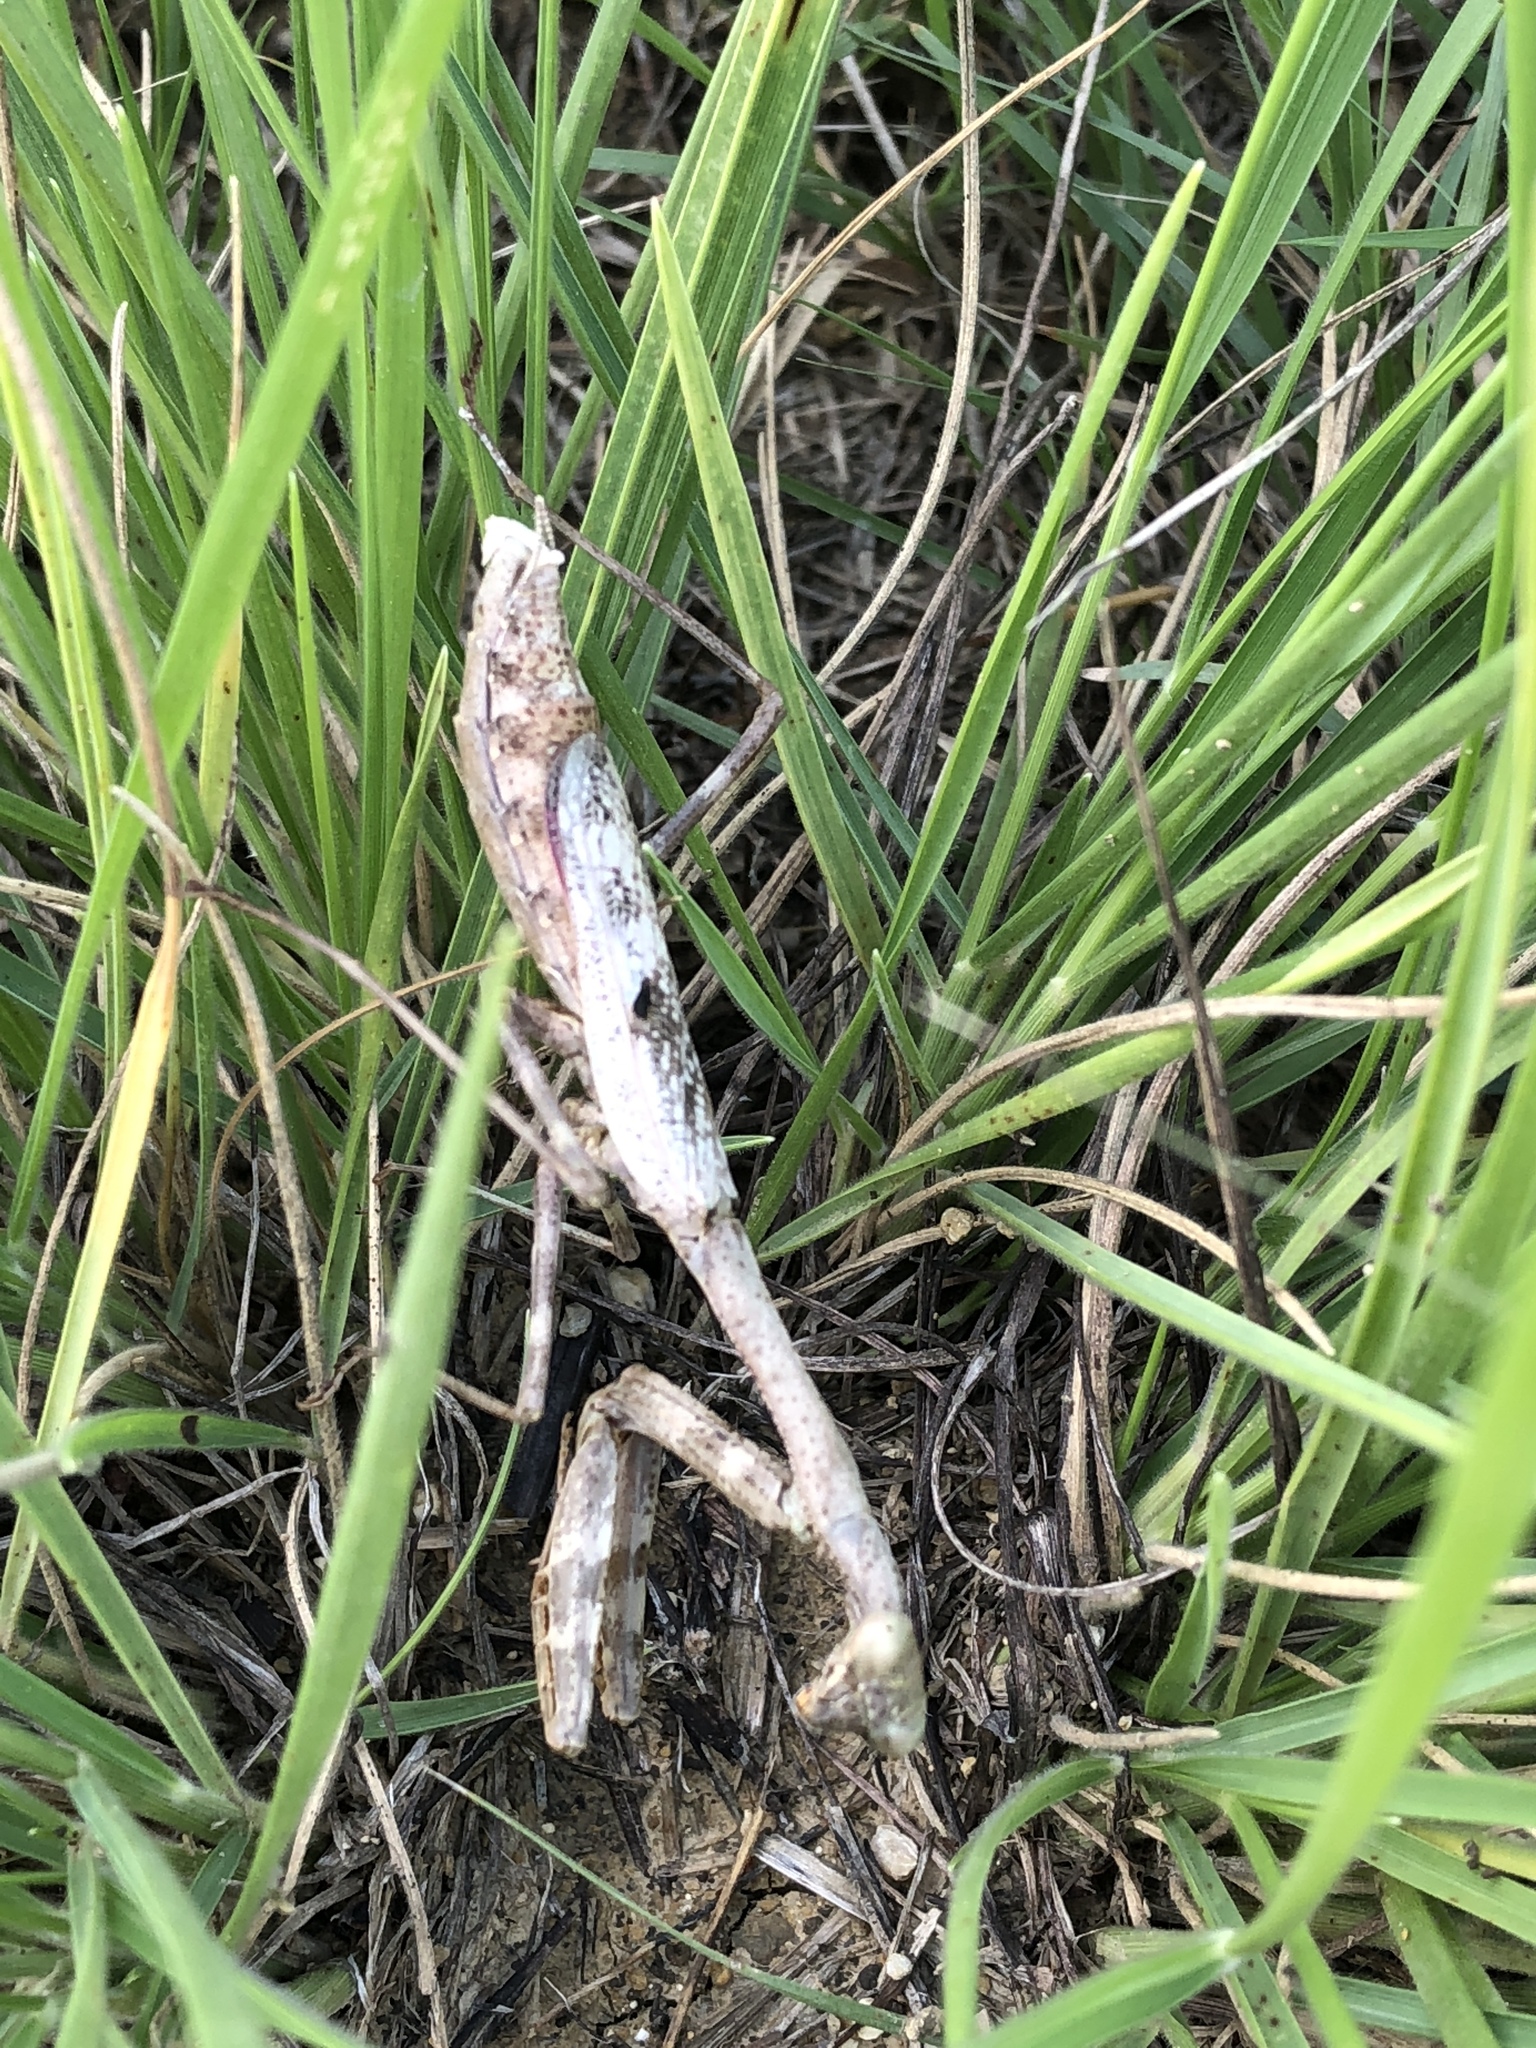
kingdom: Animalia
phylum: Arthropoda
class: Insecta
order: Mantodea
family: Mantidae
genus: Stagmomantis
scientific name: Stagmomantis carolina
